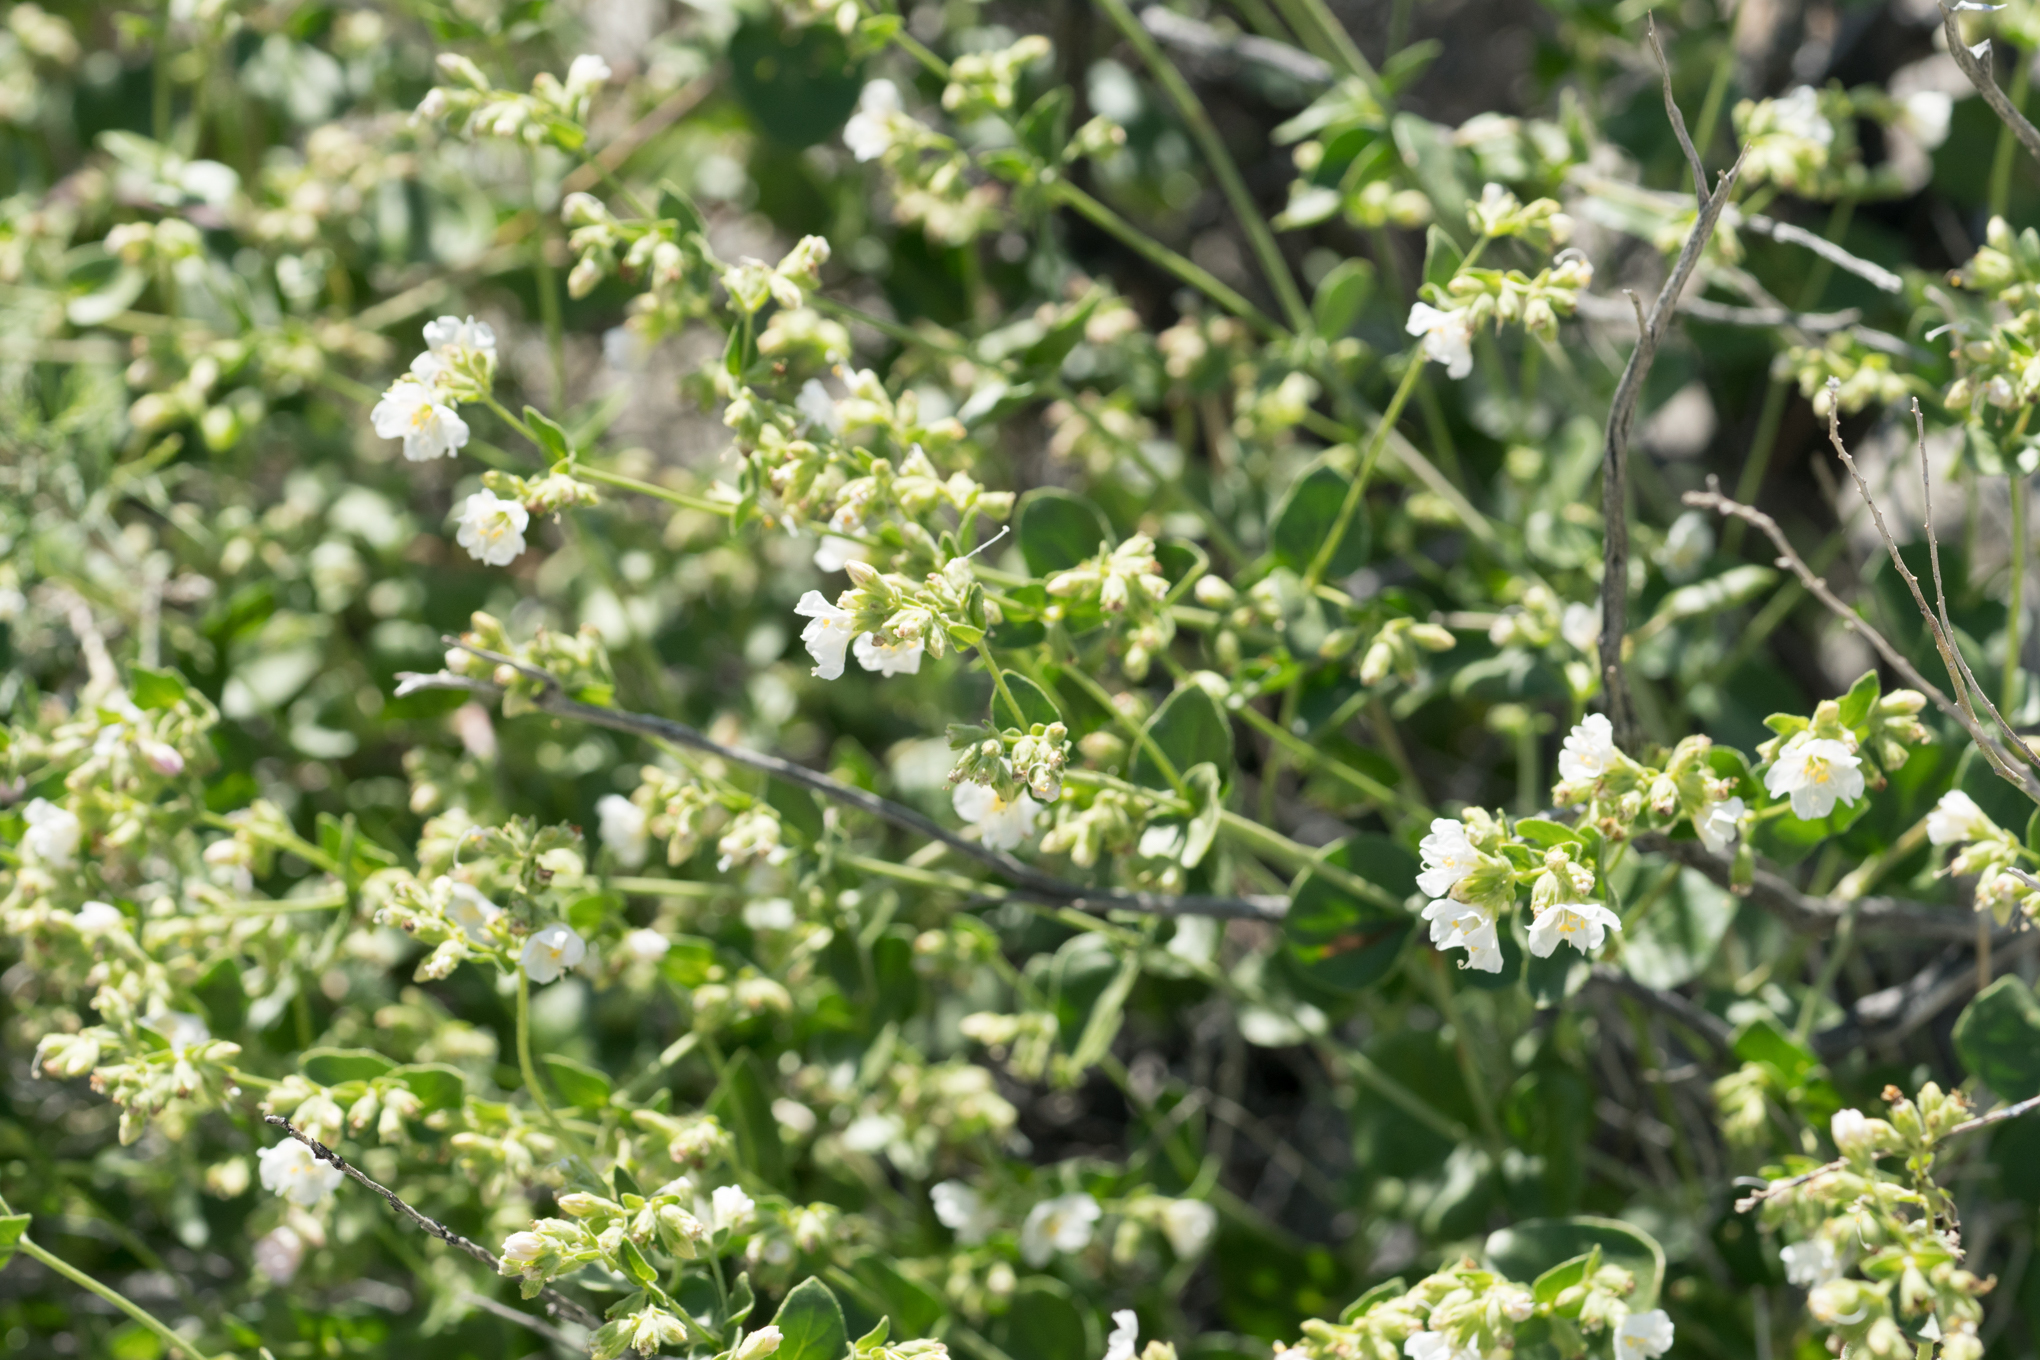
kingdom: Plantae
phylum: Tracheophyta
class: Magnoliopsida
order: Caryophyllales
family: Nyctaginaceae
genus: Mirabilis
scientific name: Mirabilis laevis
